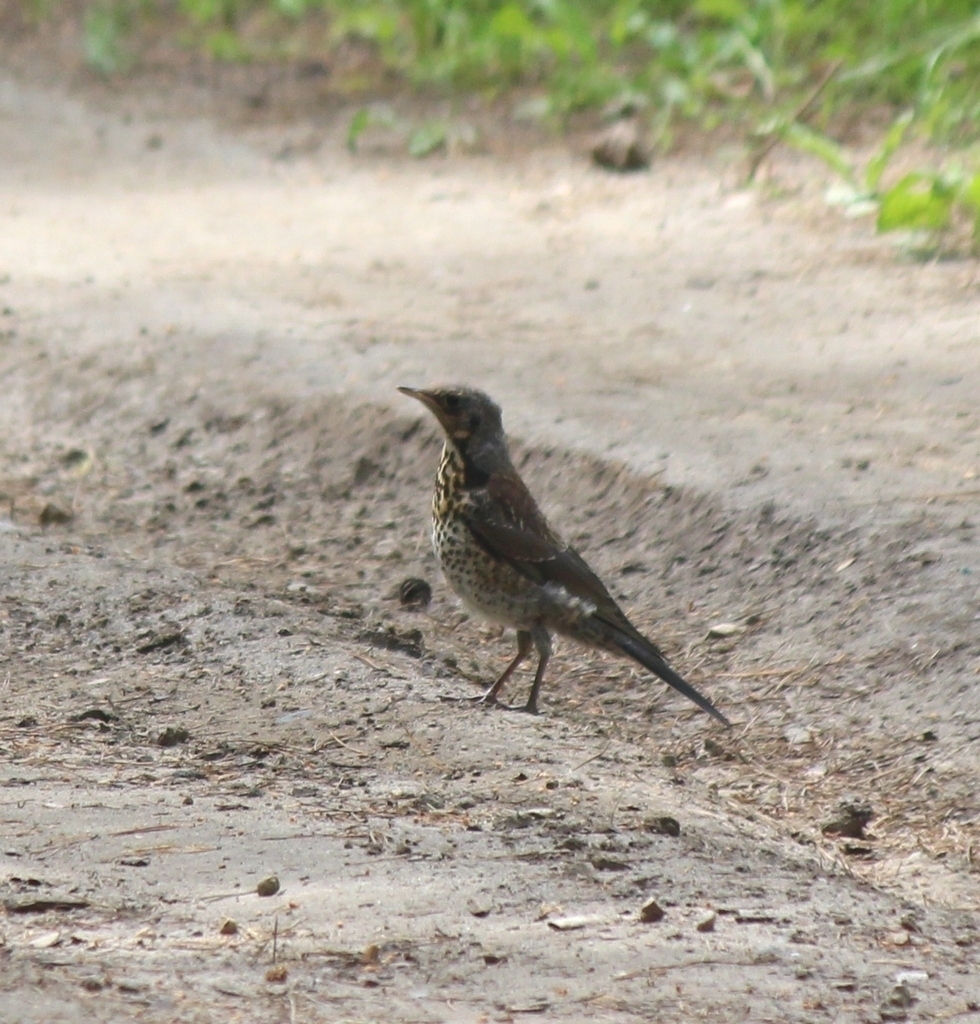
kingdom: Animalia
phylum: Chordata
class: Aves
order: Passeriformes
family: Turdidae
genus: Turdus
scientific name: Turdus pilaris
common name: Fieldfare
